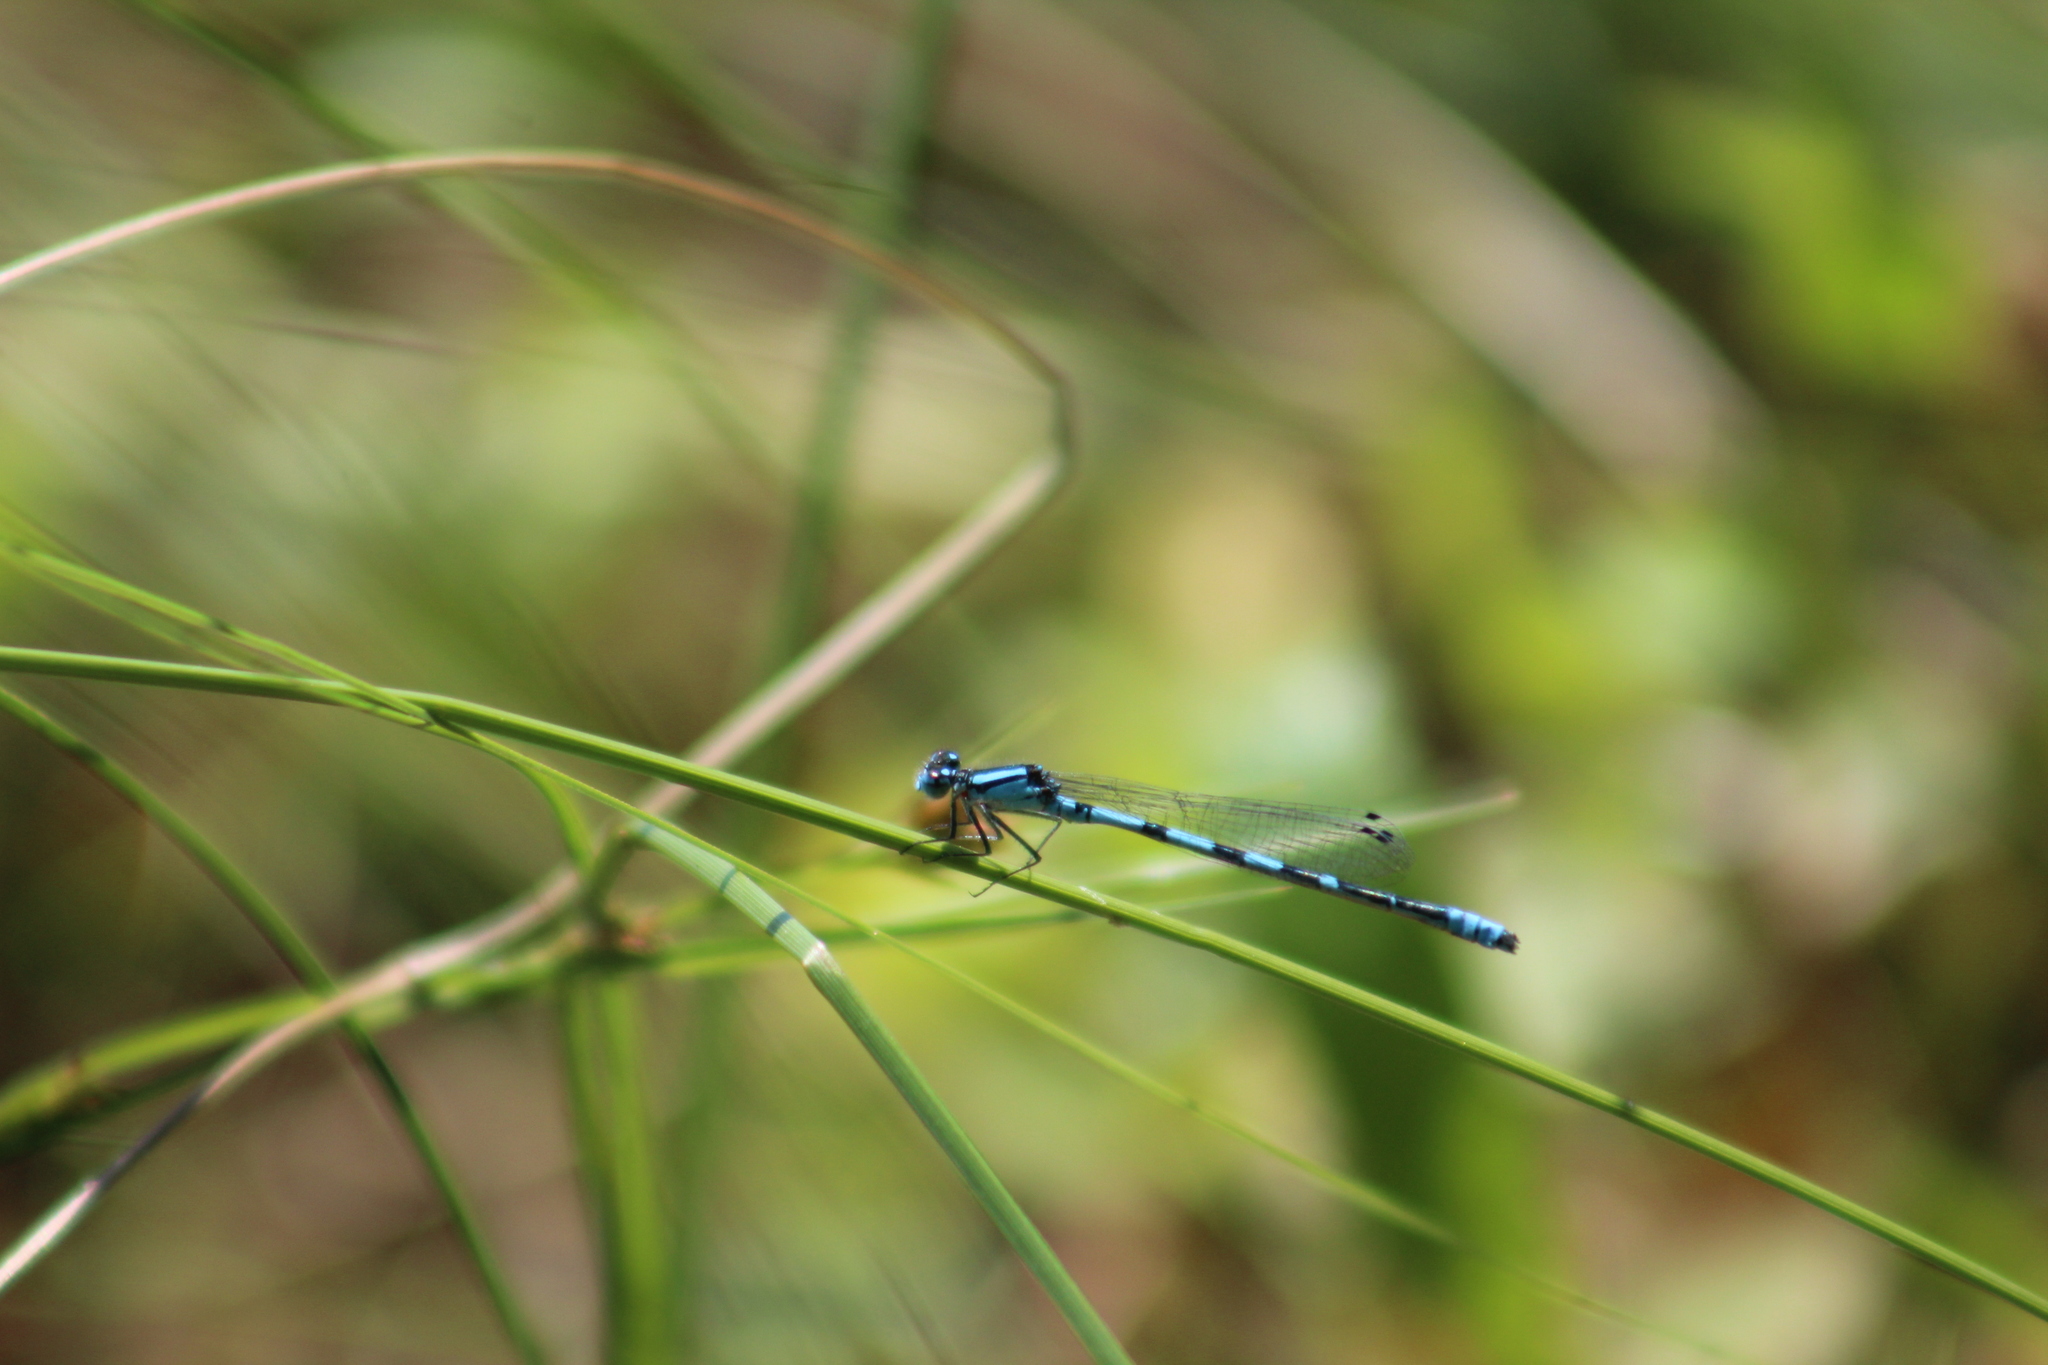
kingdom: Animalia
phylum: Arthropoda
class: Insecta
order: Odonata
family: Coenagrionidae
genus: Enallagma
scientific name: Enallagma hageni
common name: Hagen's bluet
